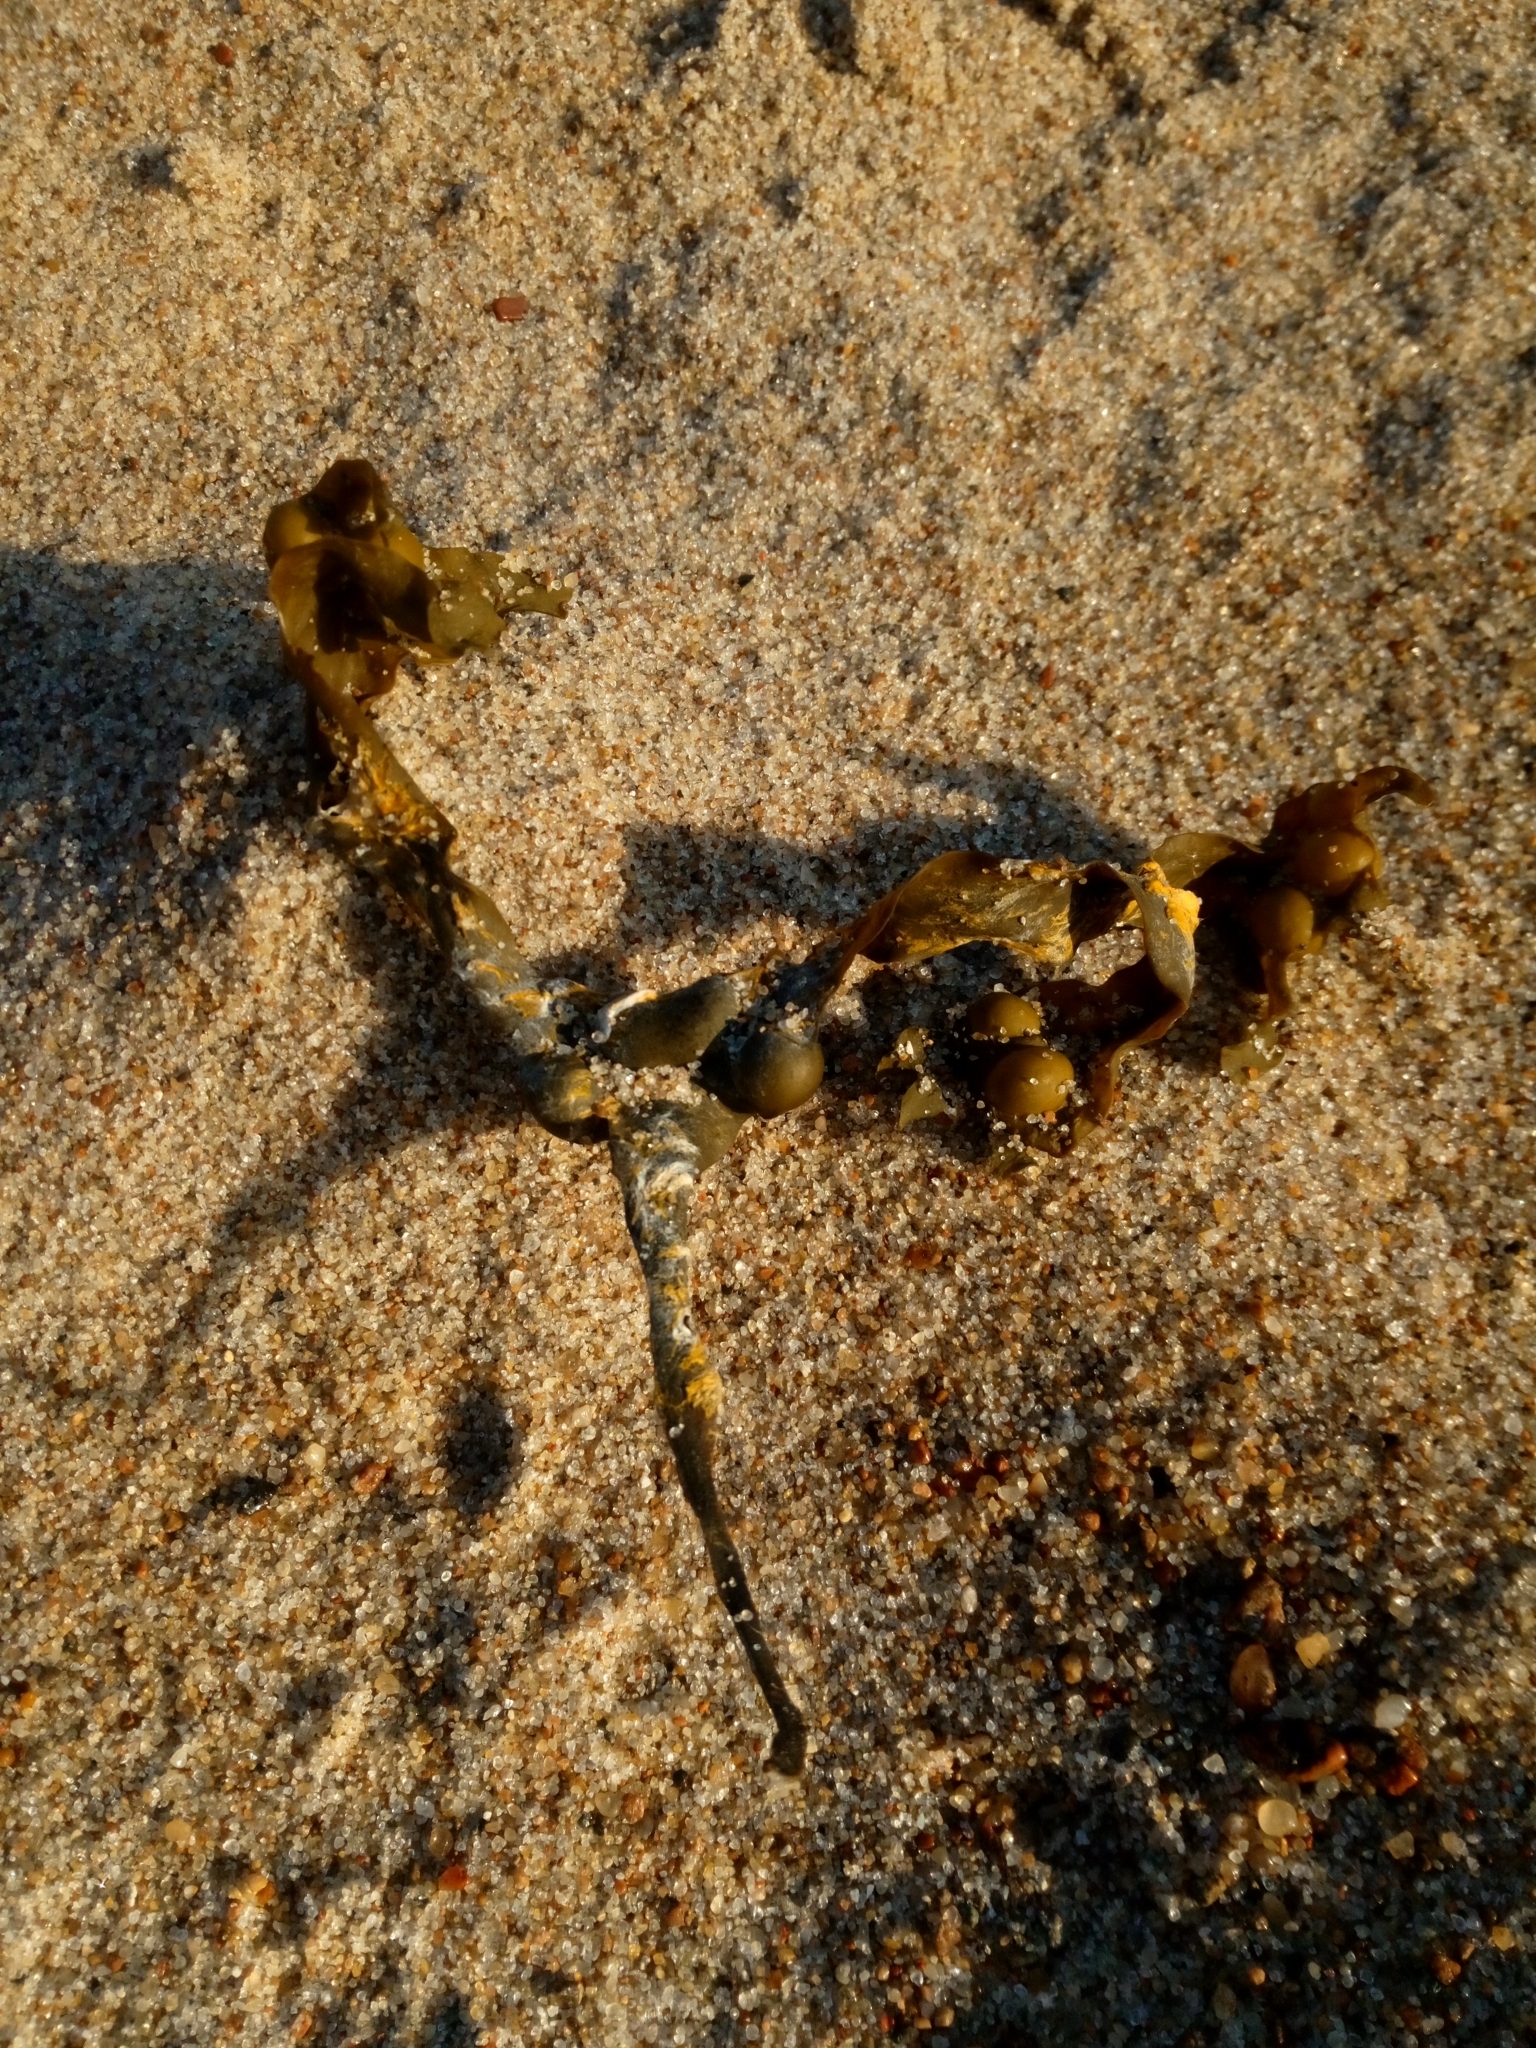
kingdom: Chromista
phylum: Ochrophyta
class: Phaeophyceae
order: Fucales
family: Fucaceae
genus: Fucus
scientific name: Fucus vesiculosus
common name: Bladder wrack
